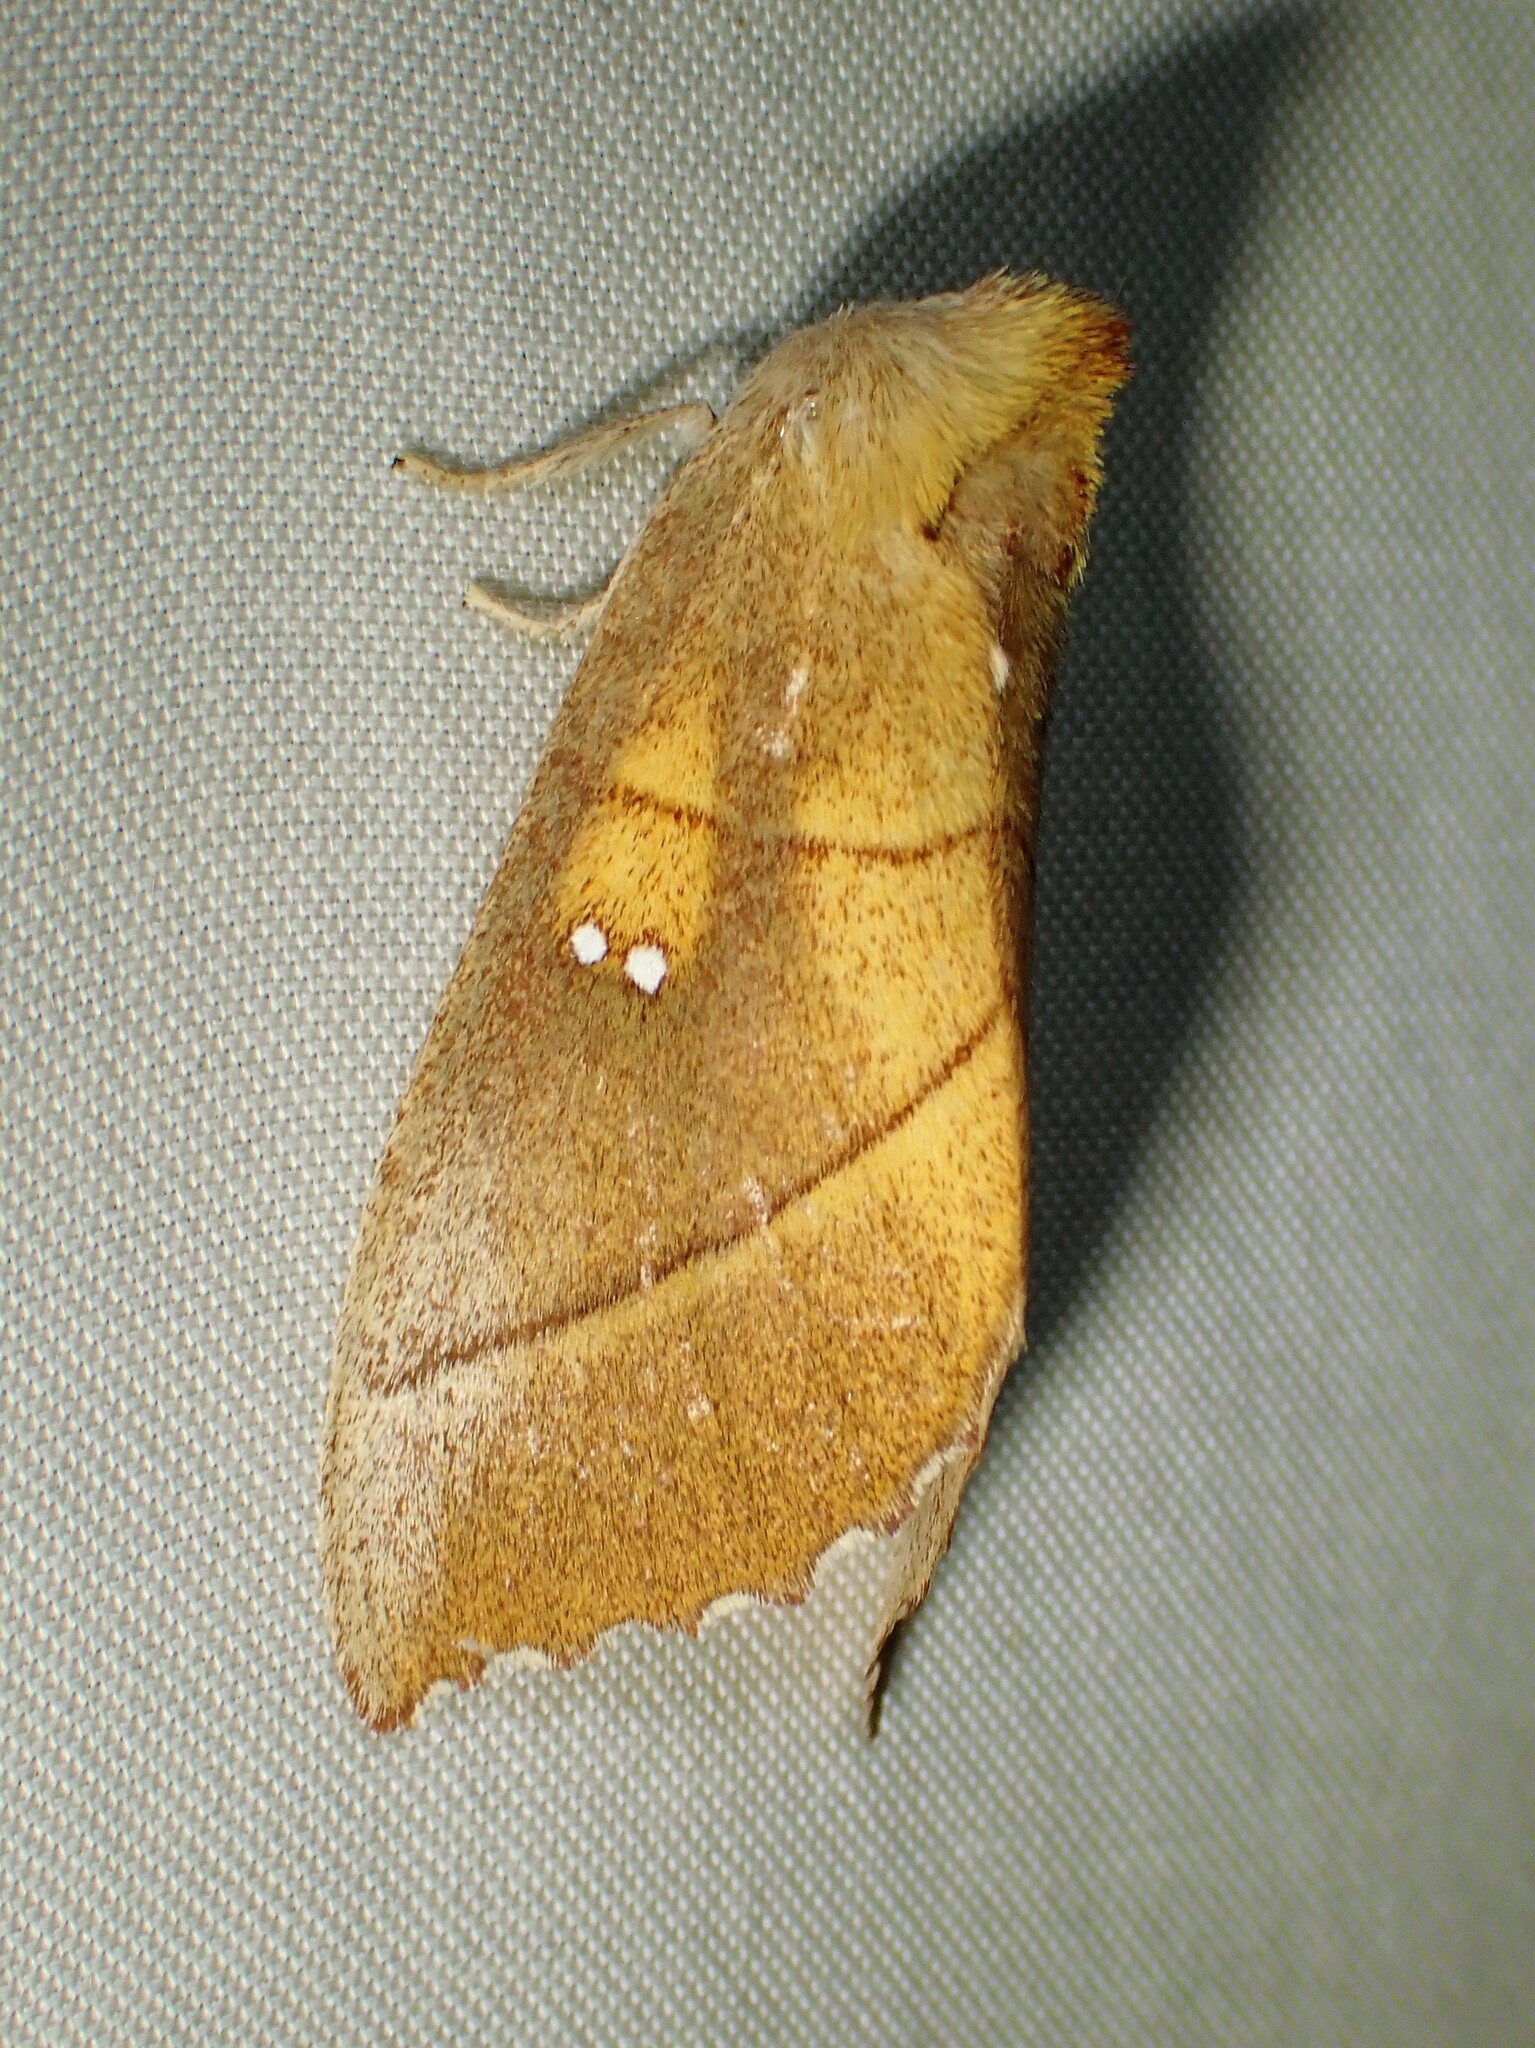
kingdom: Animalia
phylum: Arthropoda
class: Insecta
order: Lepidoptera
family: Notodontidae
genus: Nadata
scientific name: Nadata gibbosa
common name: White-dotted prominent
